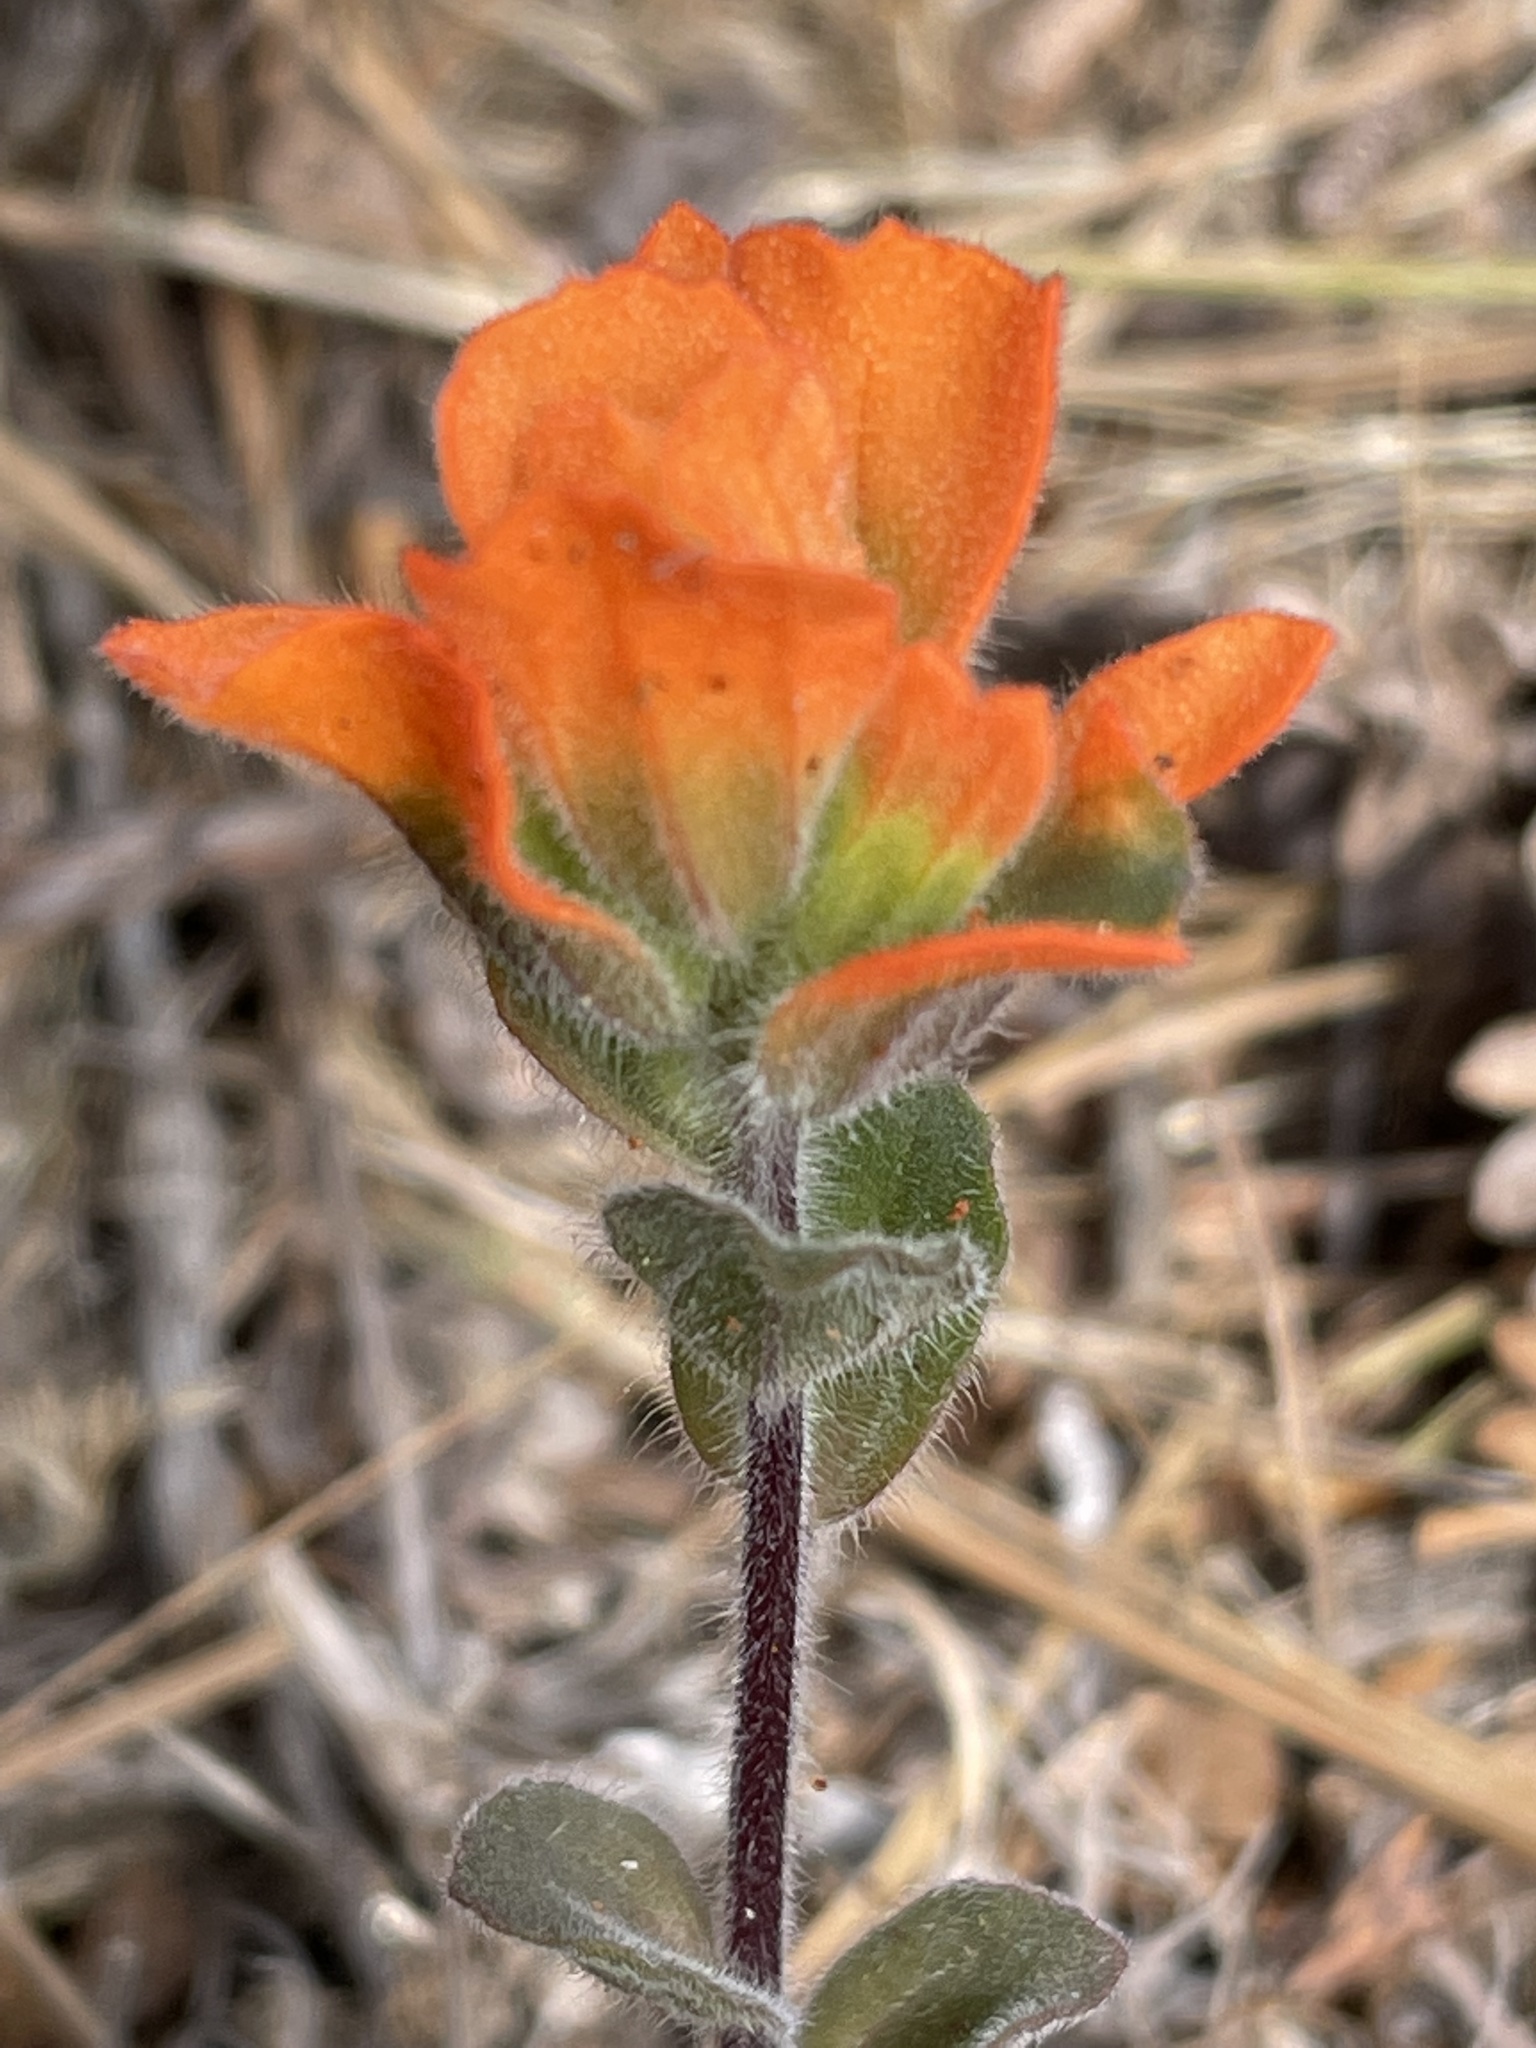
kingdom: Plantae
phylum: Tracheophyta
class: Magnoliopsida
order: Lamiales
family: Orobanchaceae
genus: Castilleja
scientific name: Castilleja latifolia
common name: Monterey indian paintbrush
